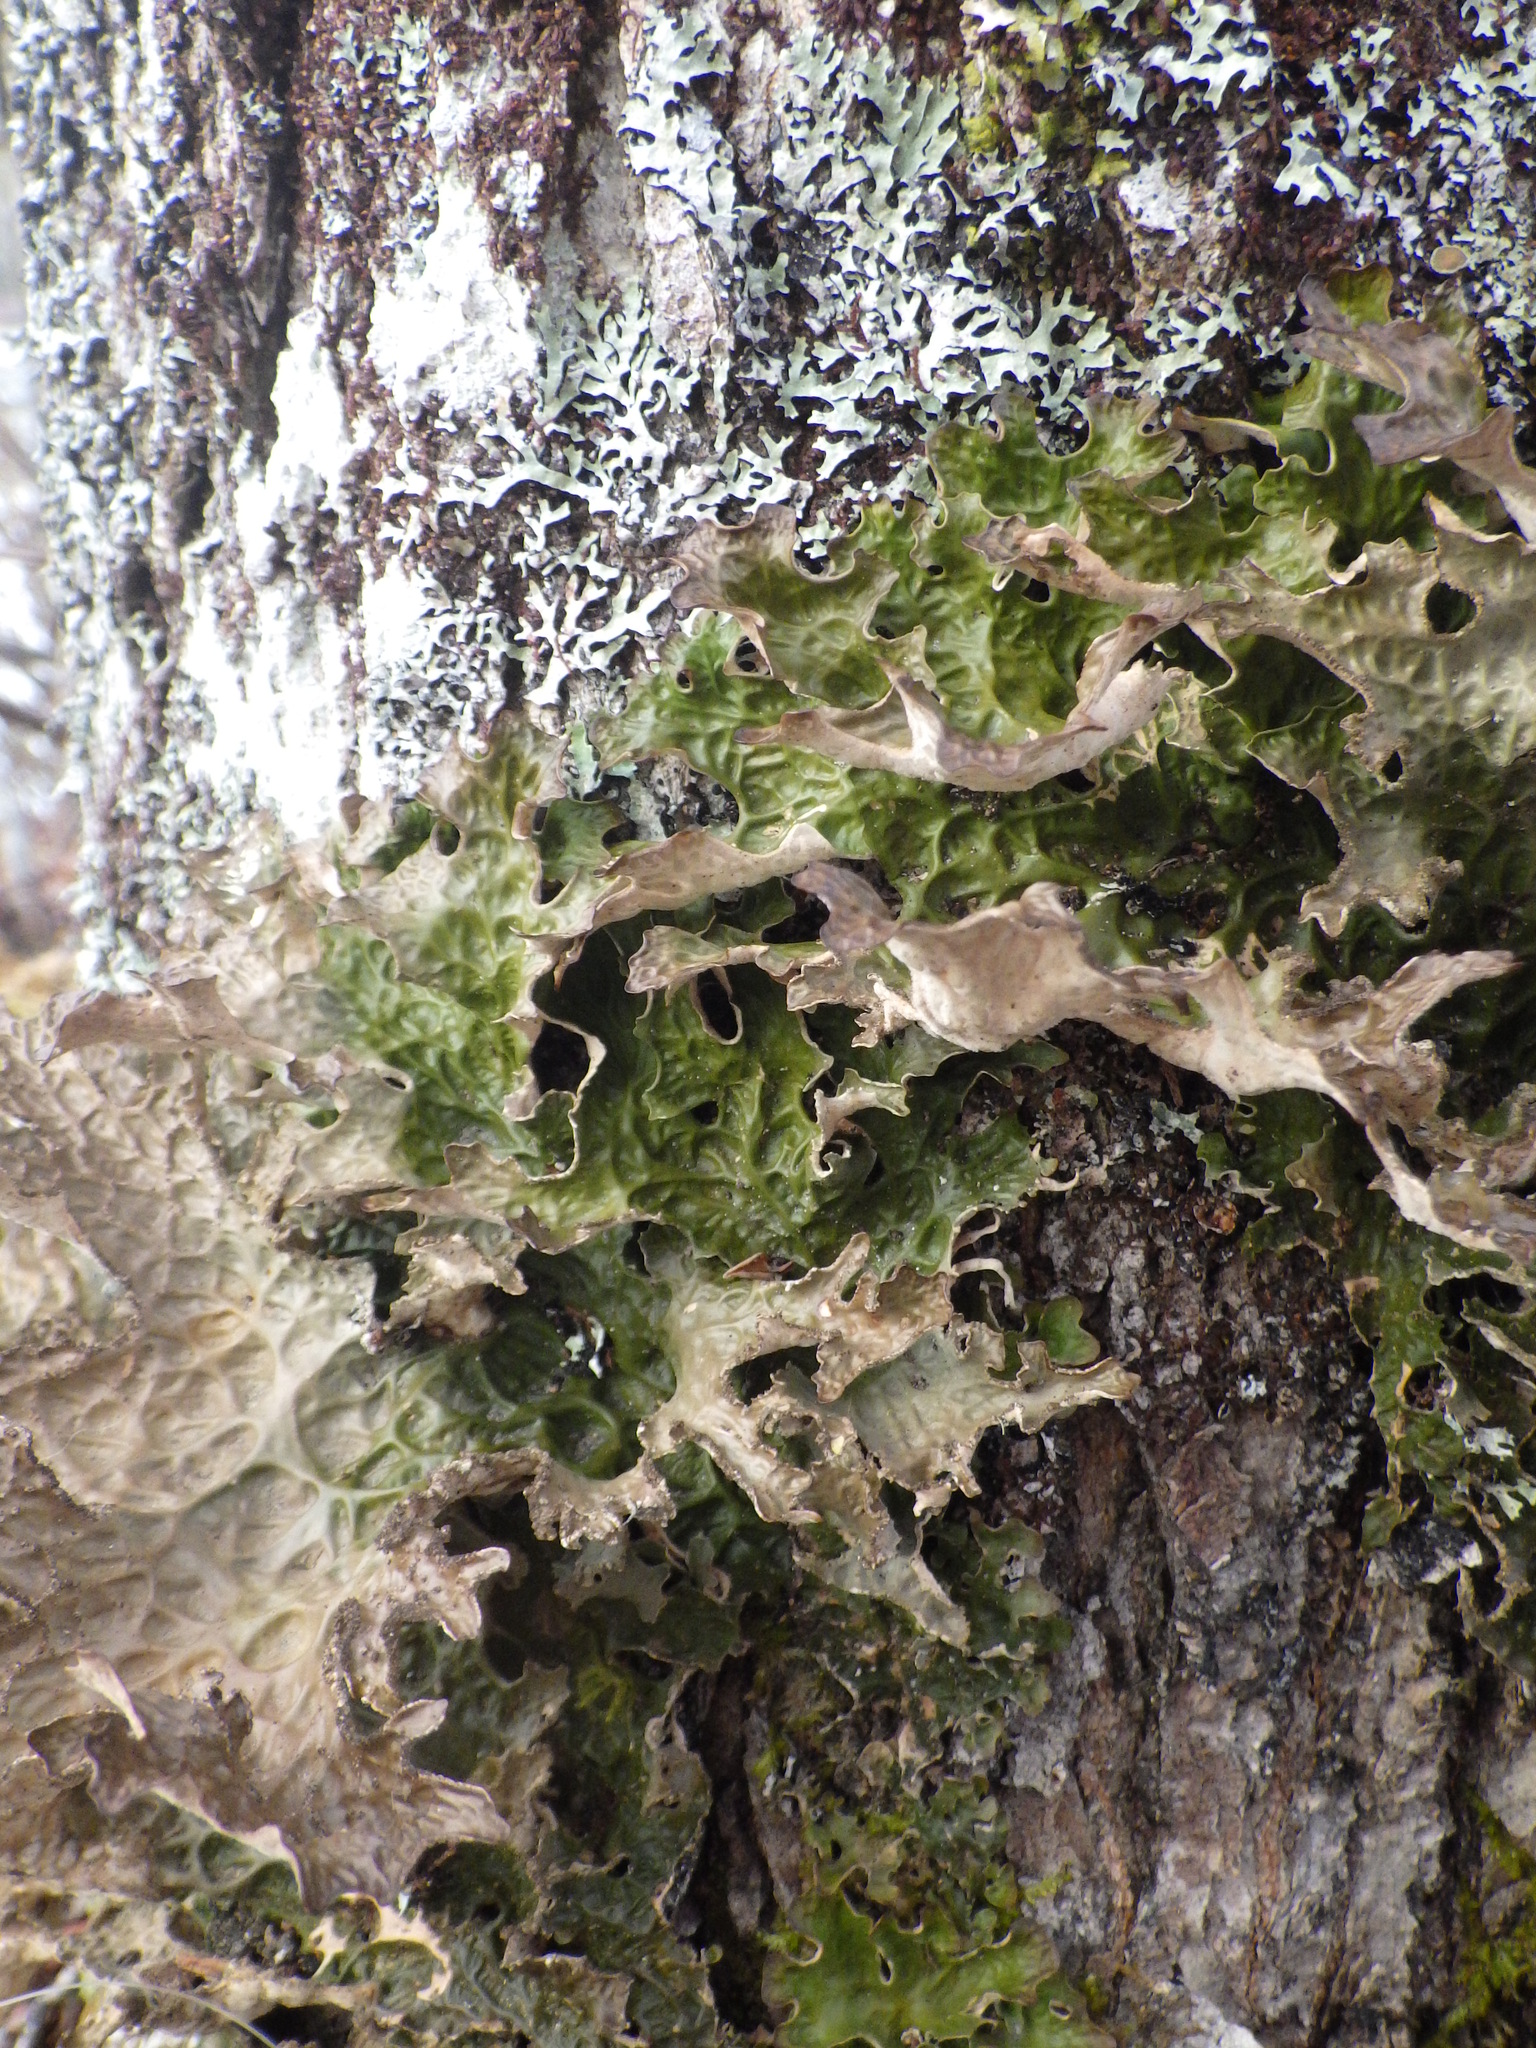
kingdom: Fungi
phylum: Ascomycota
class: Lecanoromycetes
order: Peltigerales
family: Lobariaceae
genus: Lobaria
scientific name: Lobaria pulmonaria
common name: Lungwort
